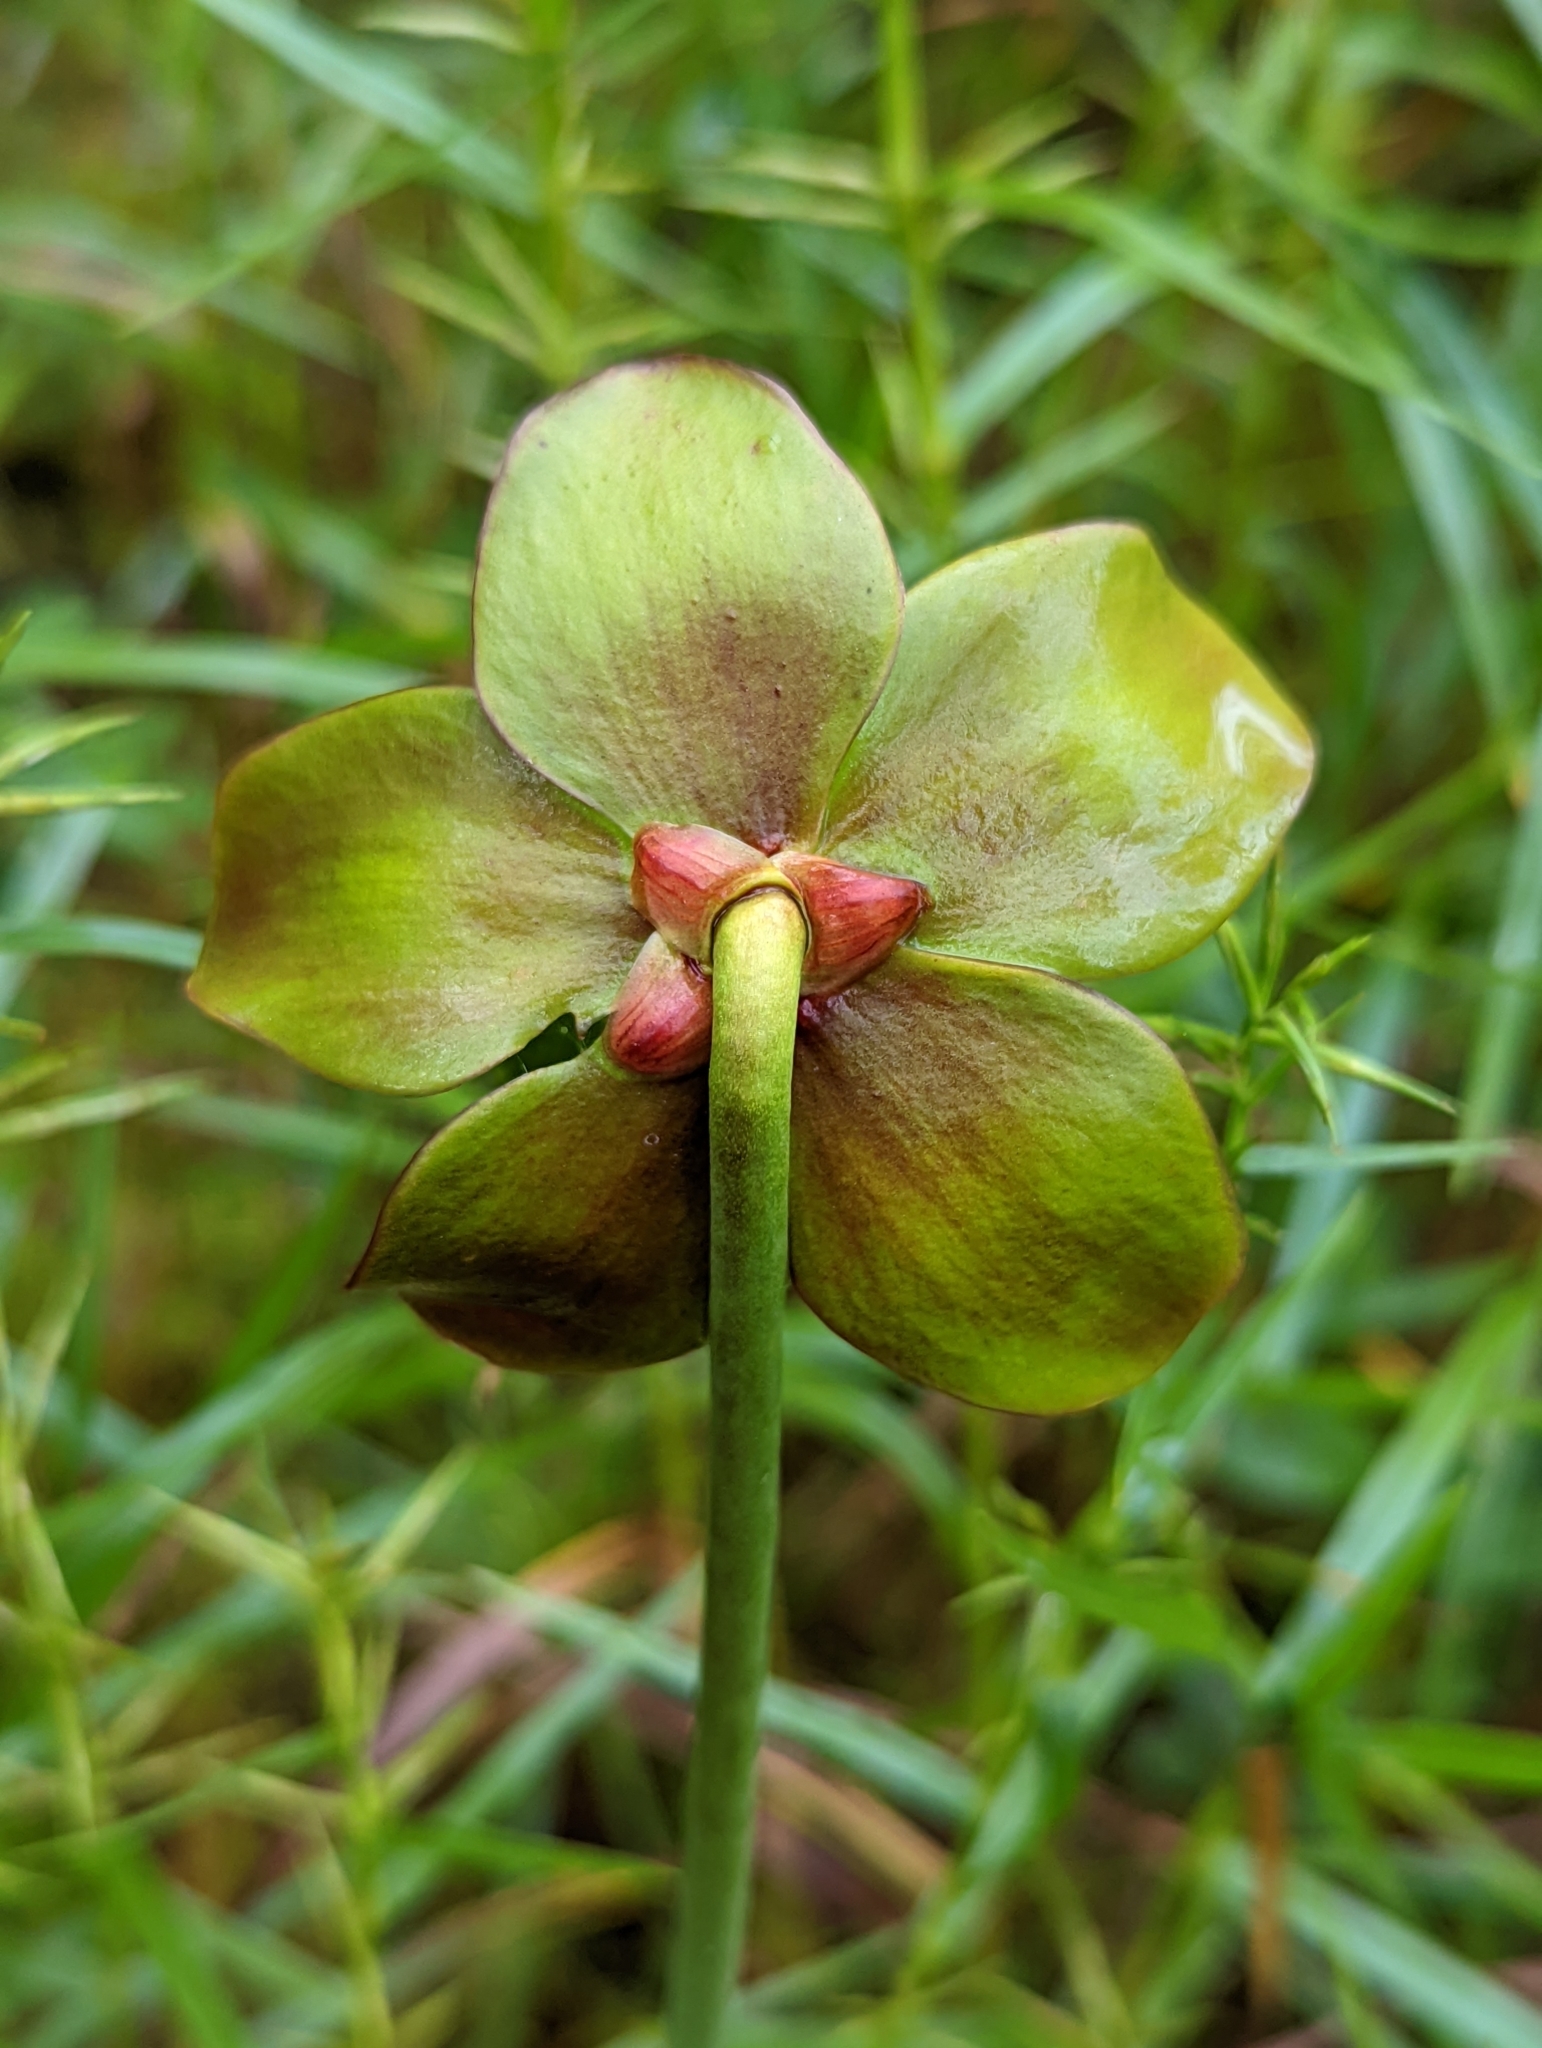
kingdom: Plantae
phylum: Tracheophyta
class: Magnoliopsida
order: Ericales
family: Sarraceniaceae
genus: Sarracenia
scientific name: Sarracenia purpurea
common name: Pitcherplant
